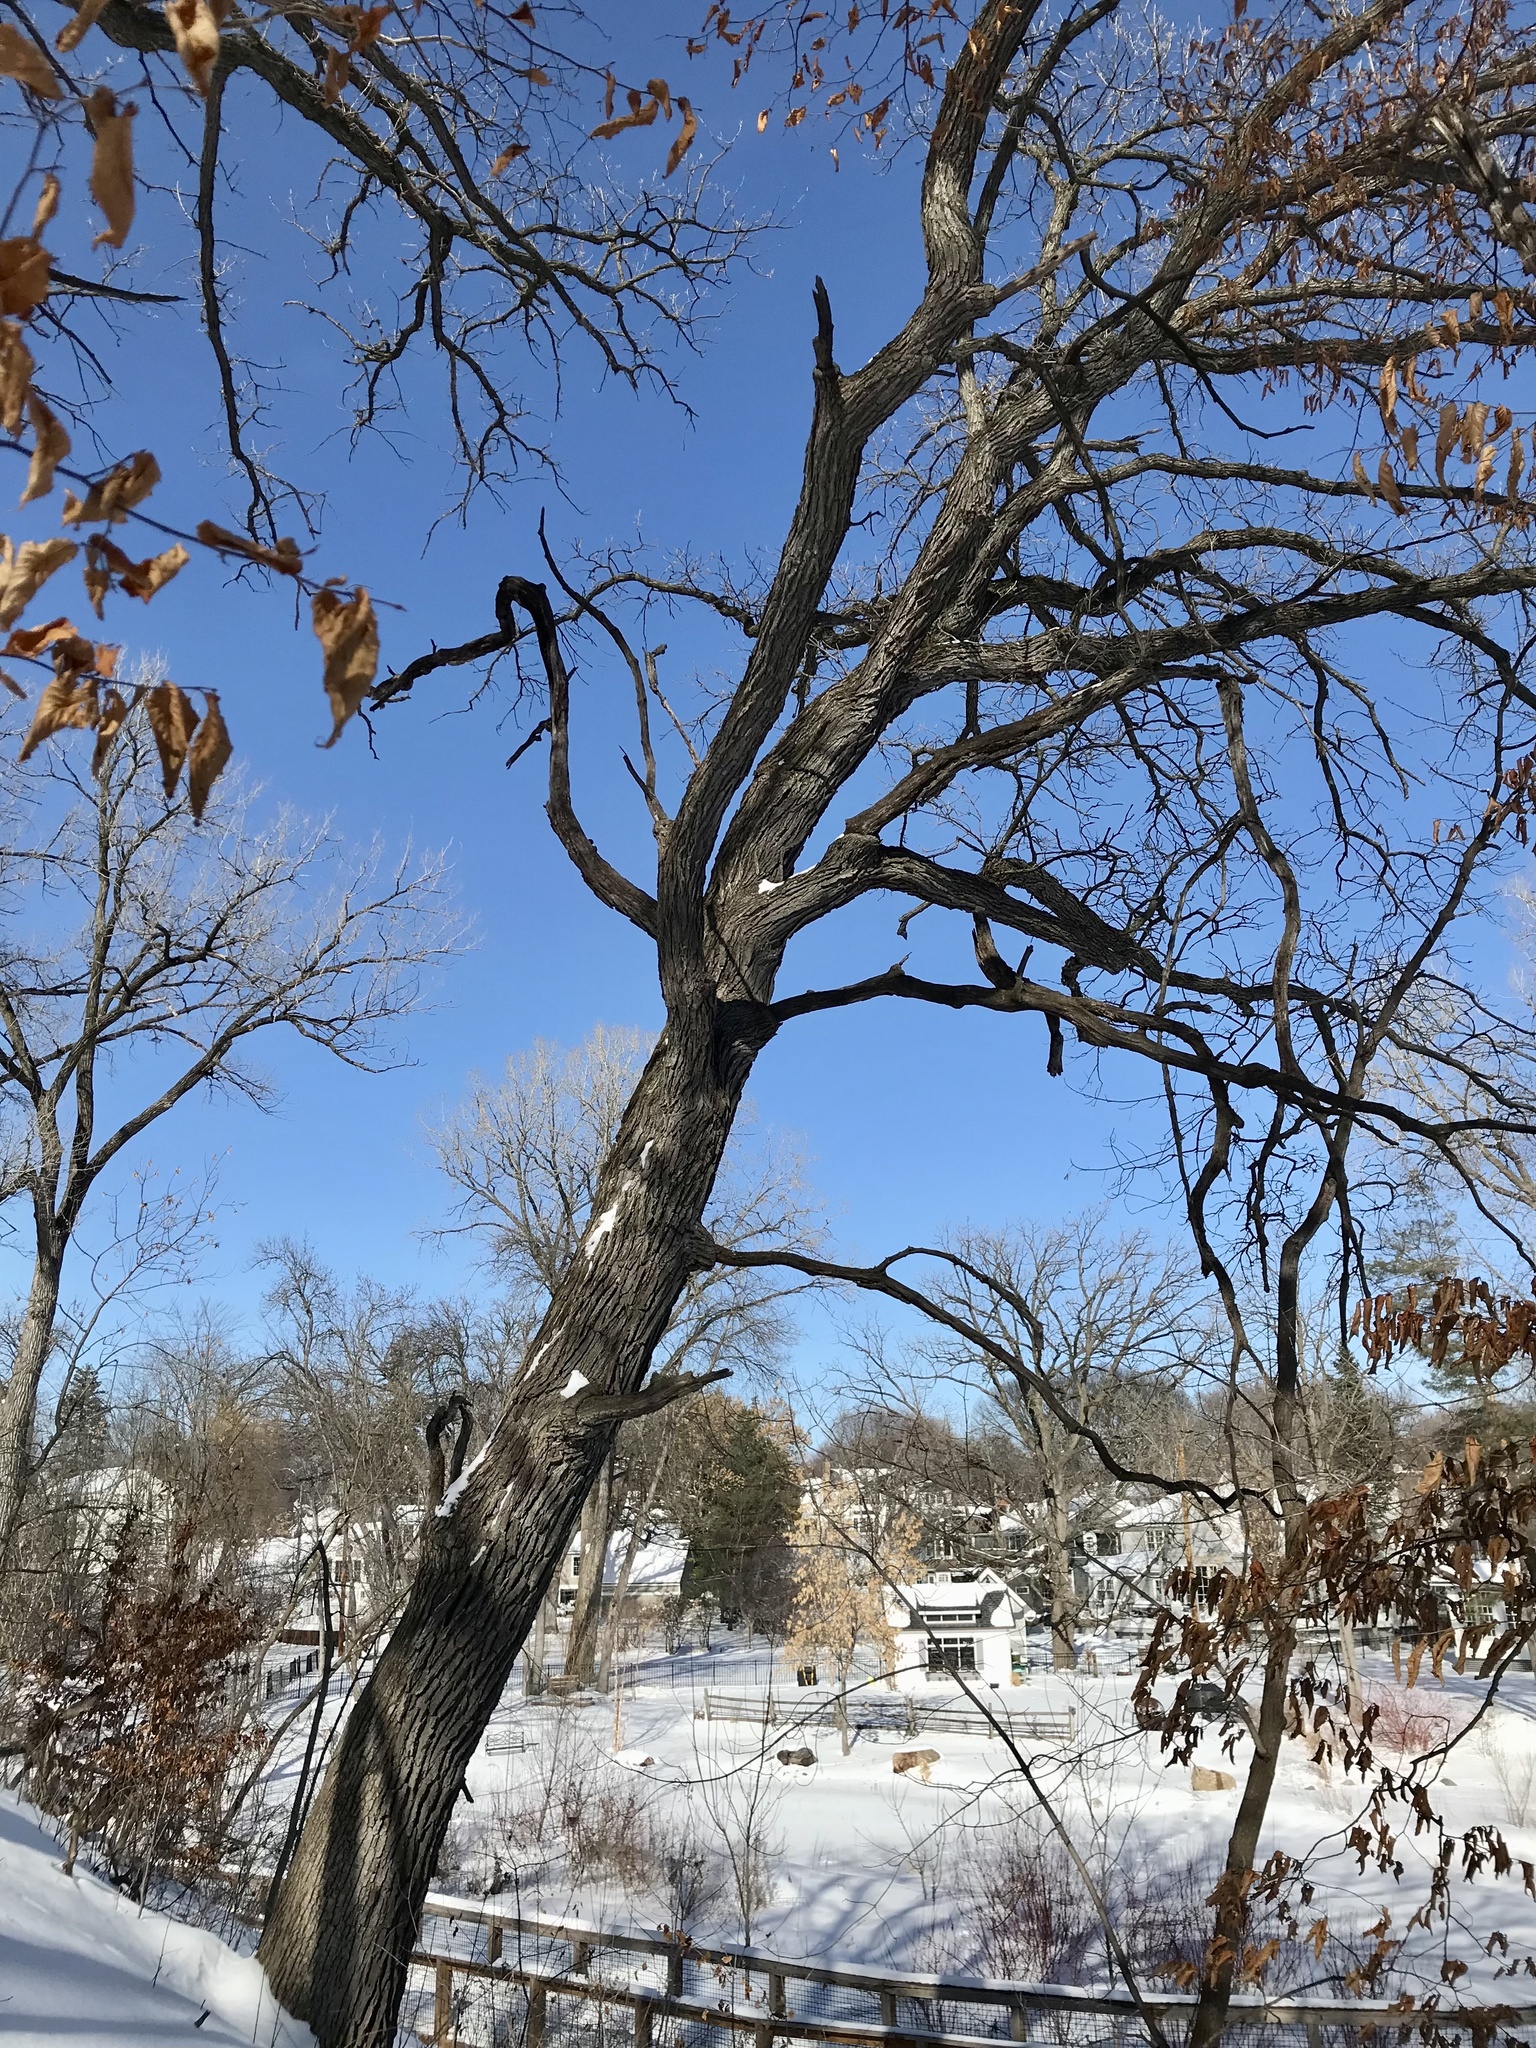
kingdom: Plantae
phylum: Tracheophyta
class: Magnoliopsida
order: Fagales
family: Fagaceae
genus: Quercus
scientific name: Quercus macrocarpa
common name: Bur oak
